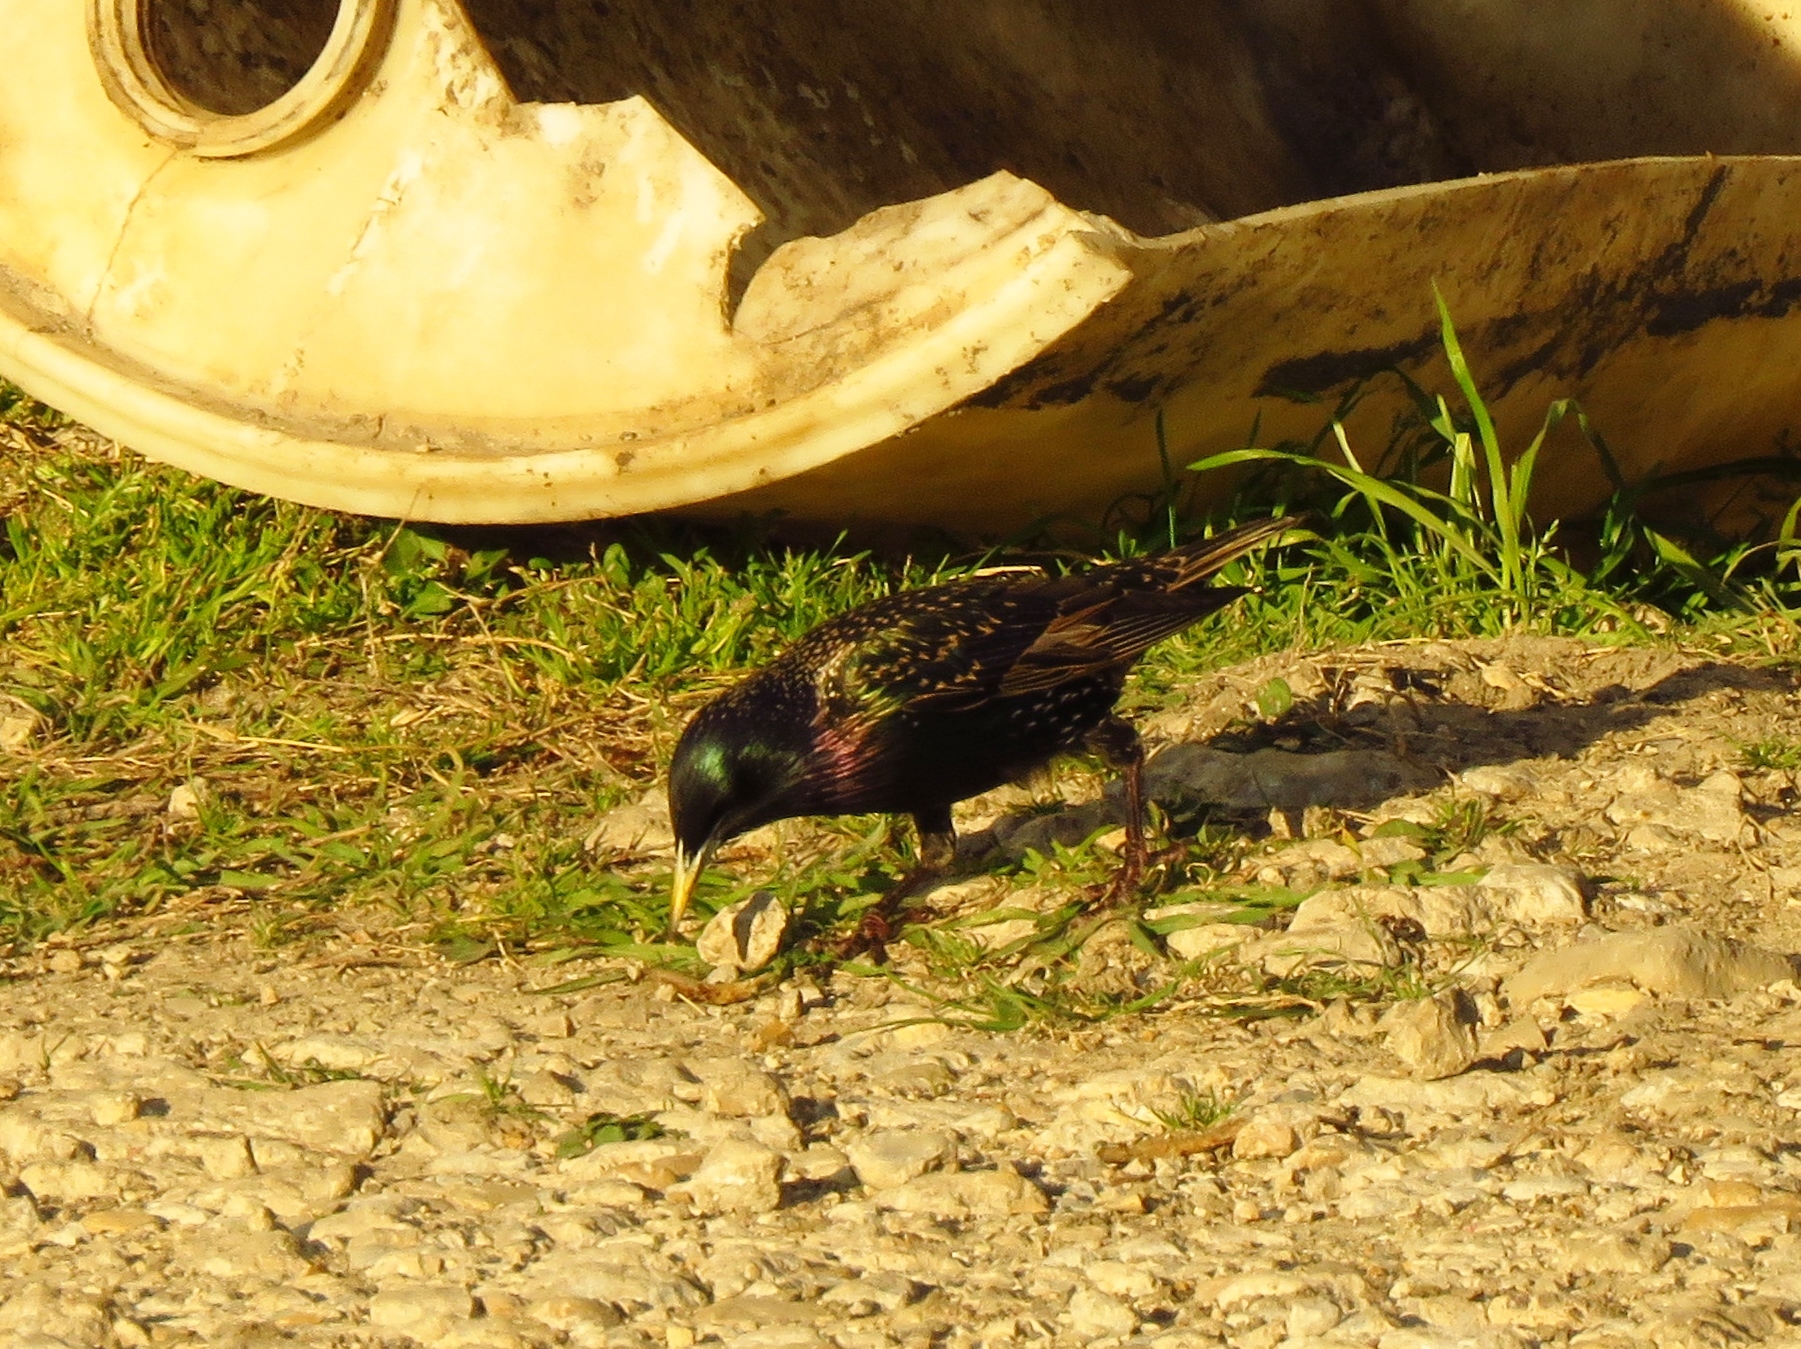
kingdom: Animalia
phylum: Chordata
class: Aves
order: Passeriformes
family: Sturnidae
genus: Sturnus
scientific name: Sturnus vulgaris
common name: Common starling
